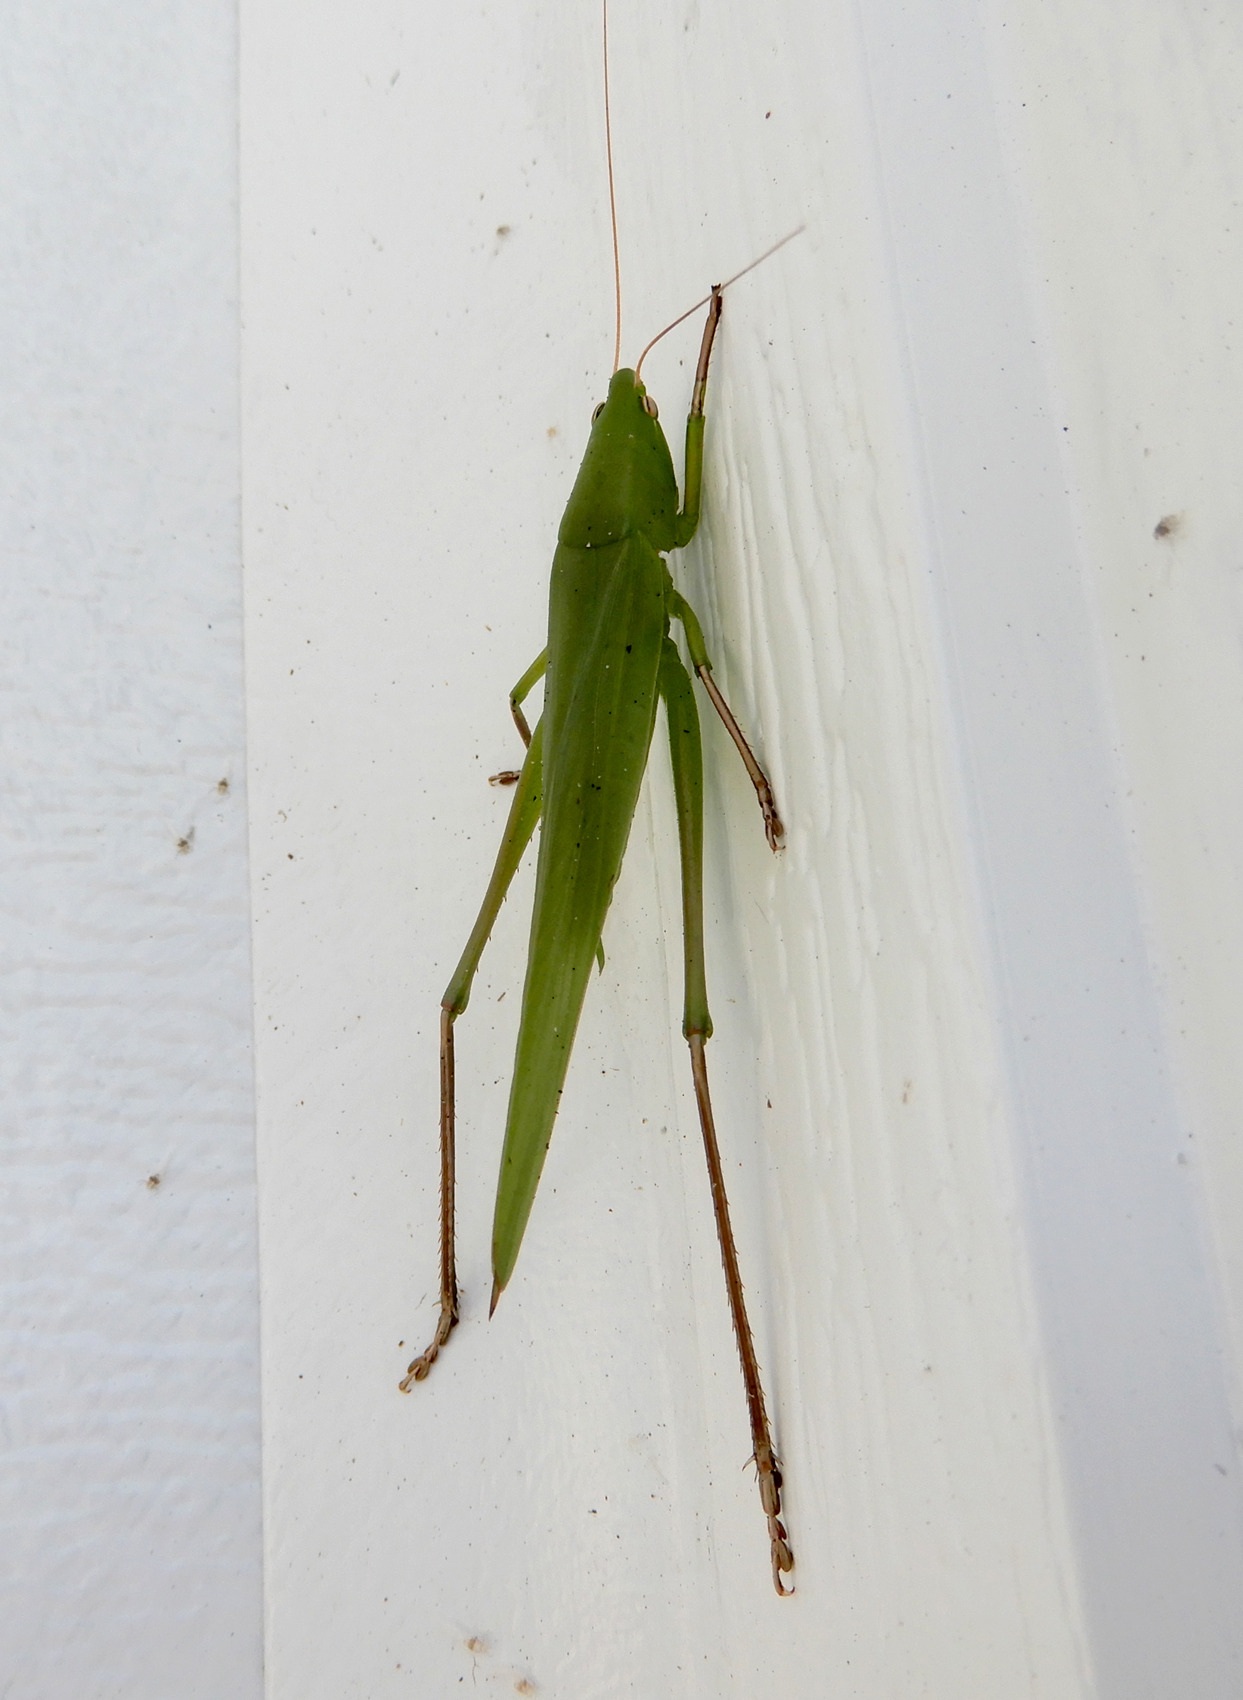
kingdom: Animalia
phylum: Arthropoda
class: Insecta
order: Orthoptera
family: Tettigoniidae
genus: Neoconocephalus
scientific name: Neoconocephalus triops
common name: Broad-tipped conehead
